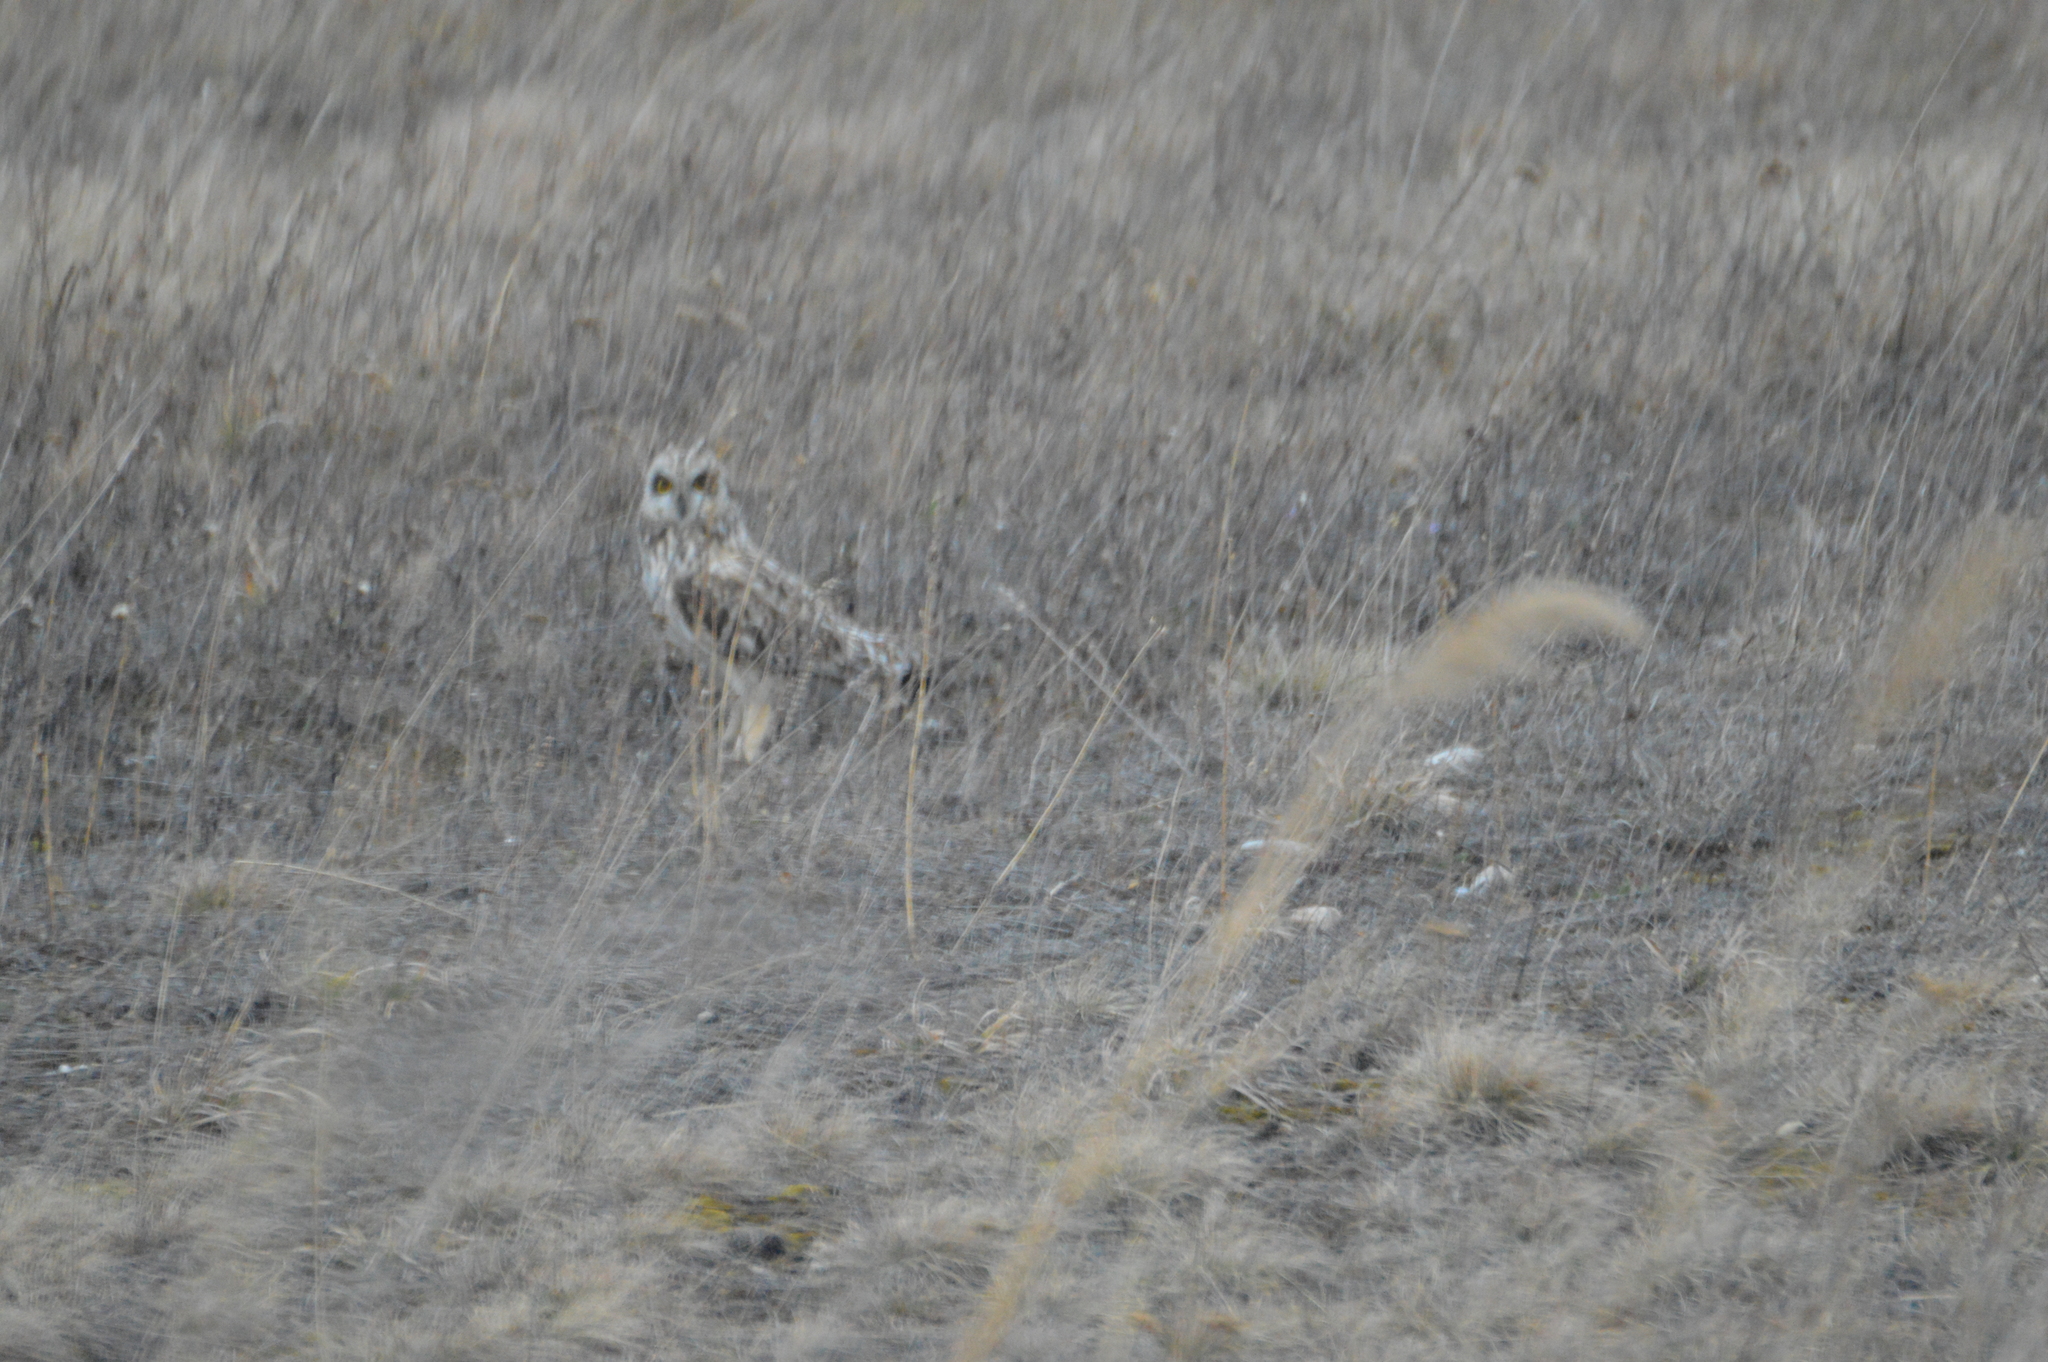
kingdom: Animalia
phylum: Chordata
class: Aves
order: Strigiformes
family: Strigidae
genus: Asio
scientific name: Asio flammeus
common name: Short-eared owl
